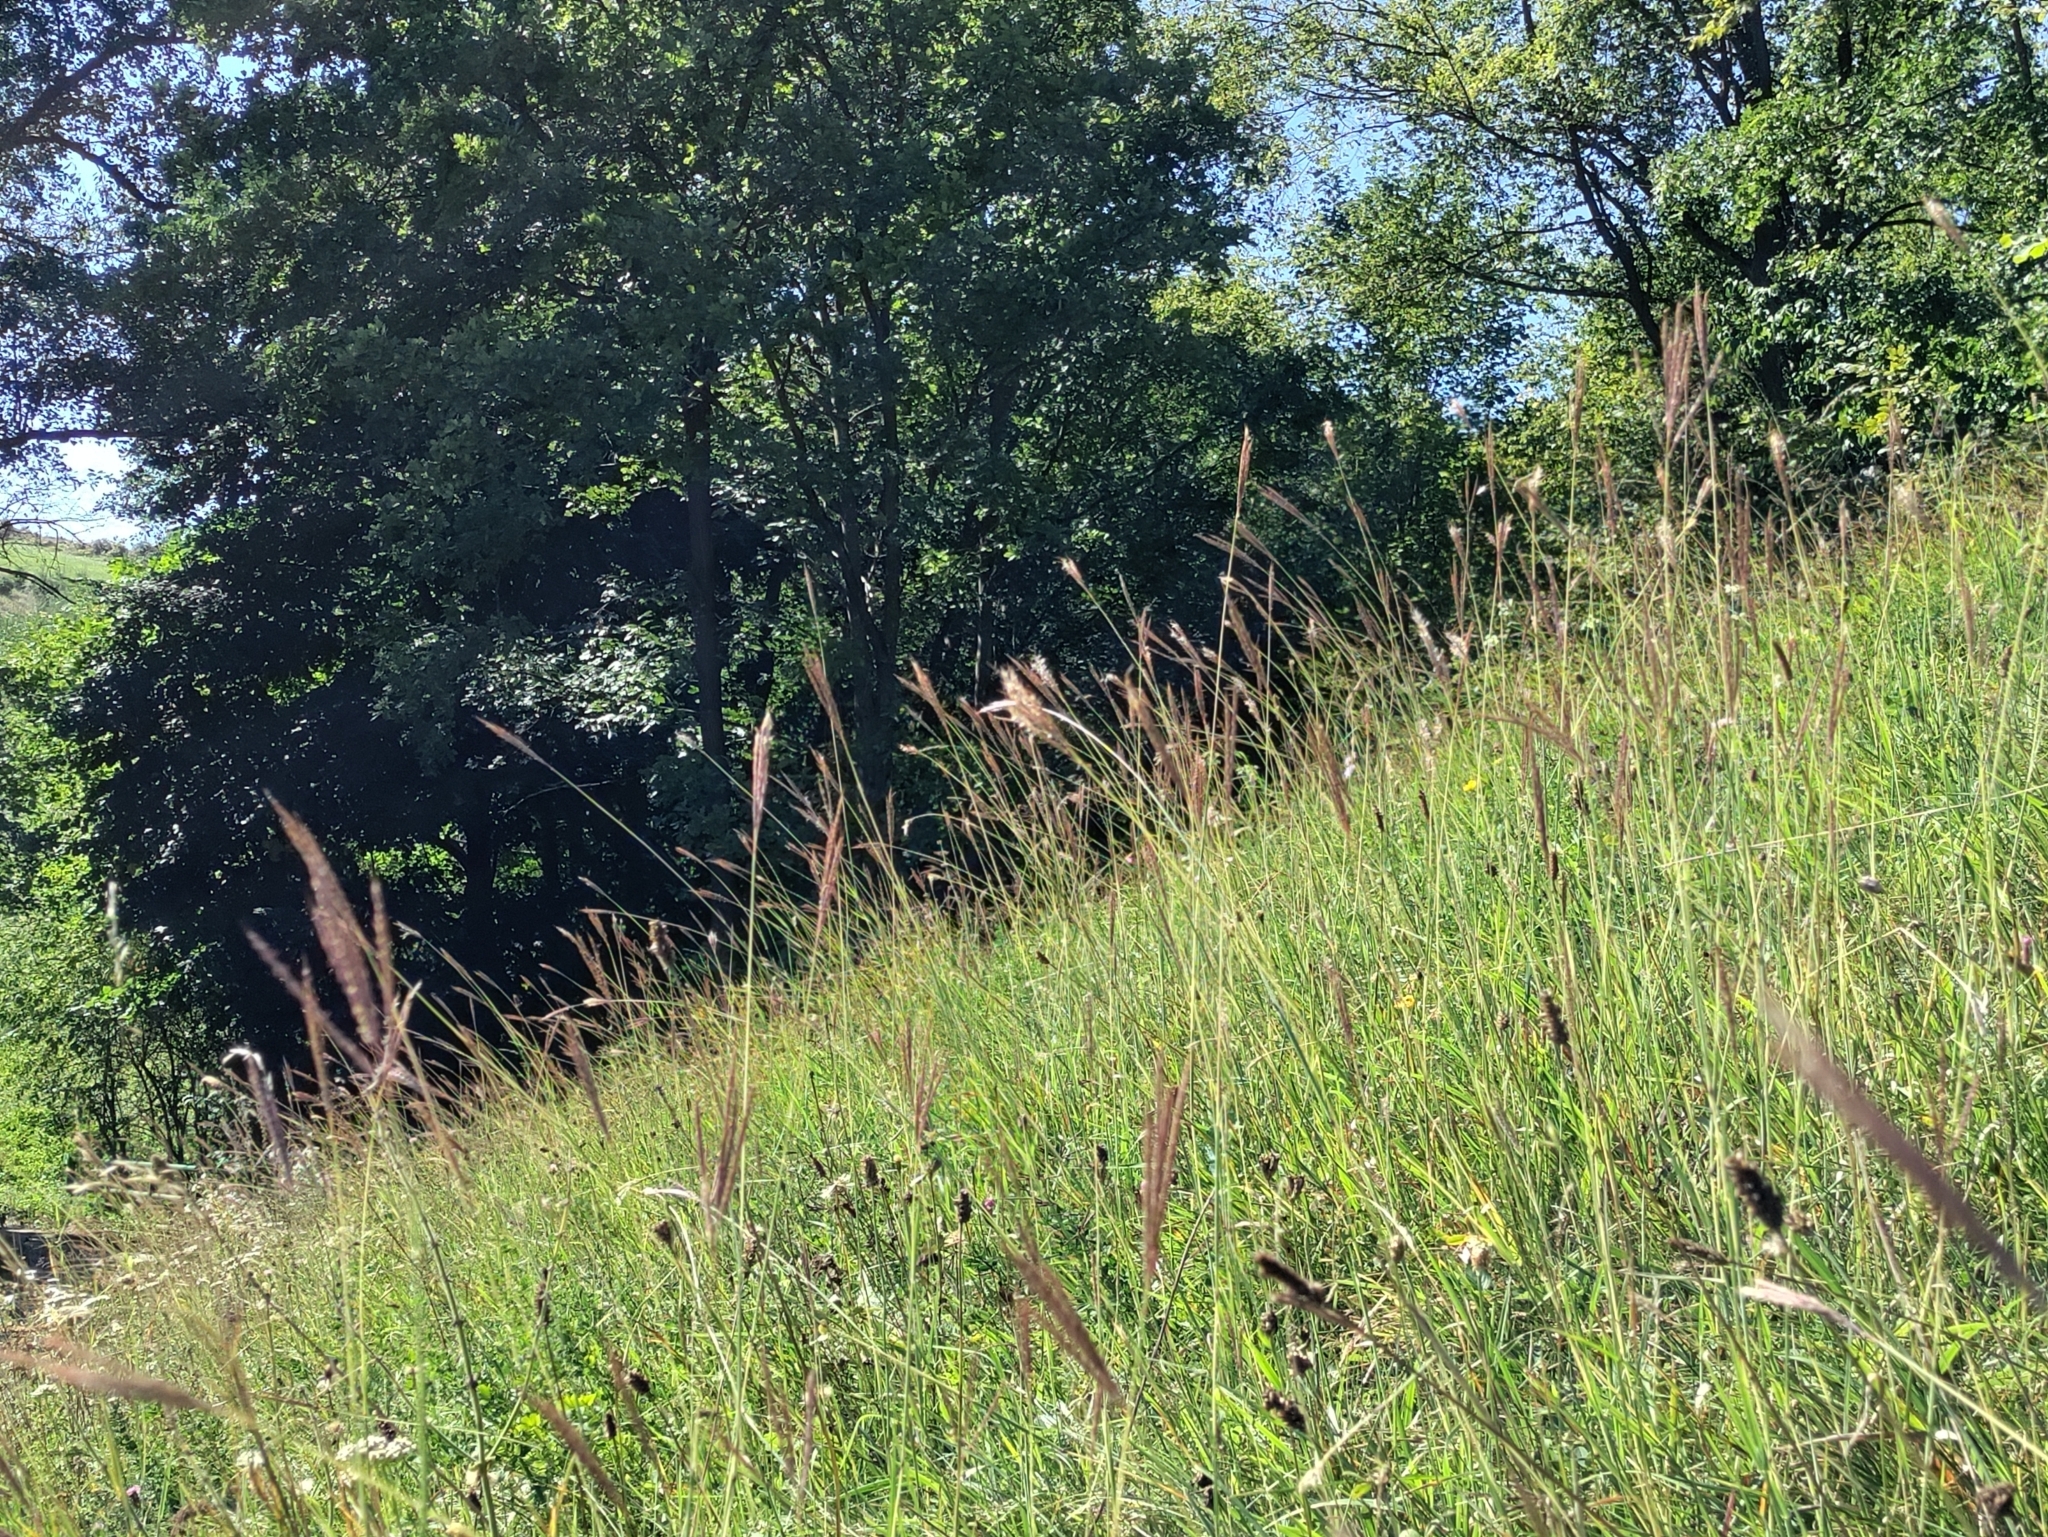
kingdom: Plantae
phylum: Tracheophyta
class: Liliopsida
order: Poales
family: Poaceae
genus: Bothriochloa
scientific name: Bothriochloa ischaemum
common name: Yellow bluestem
